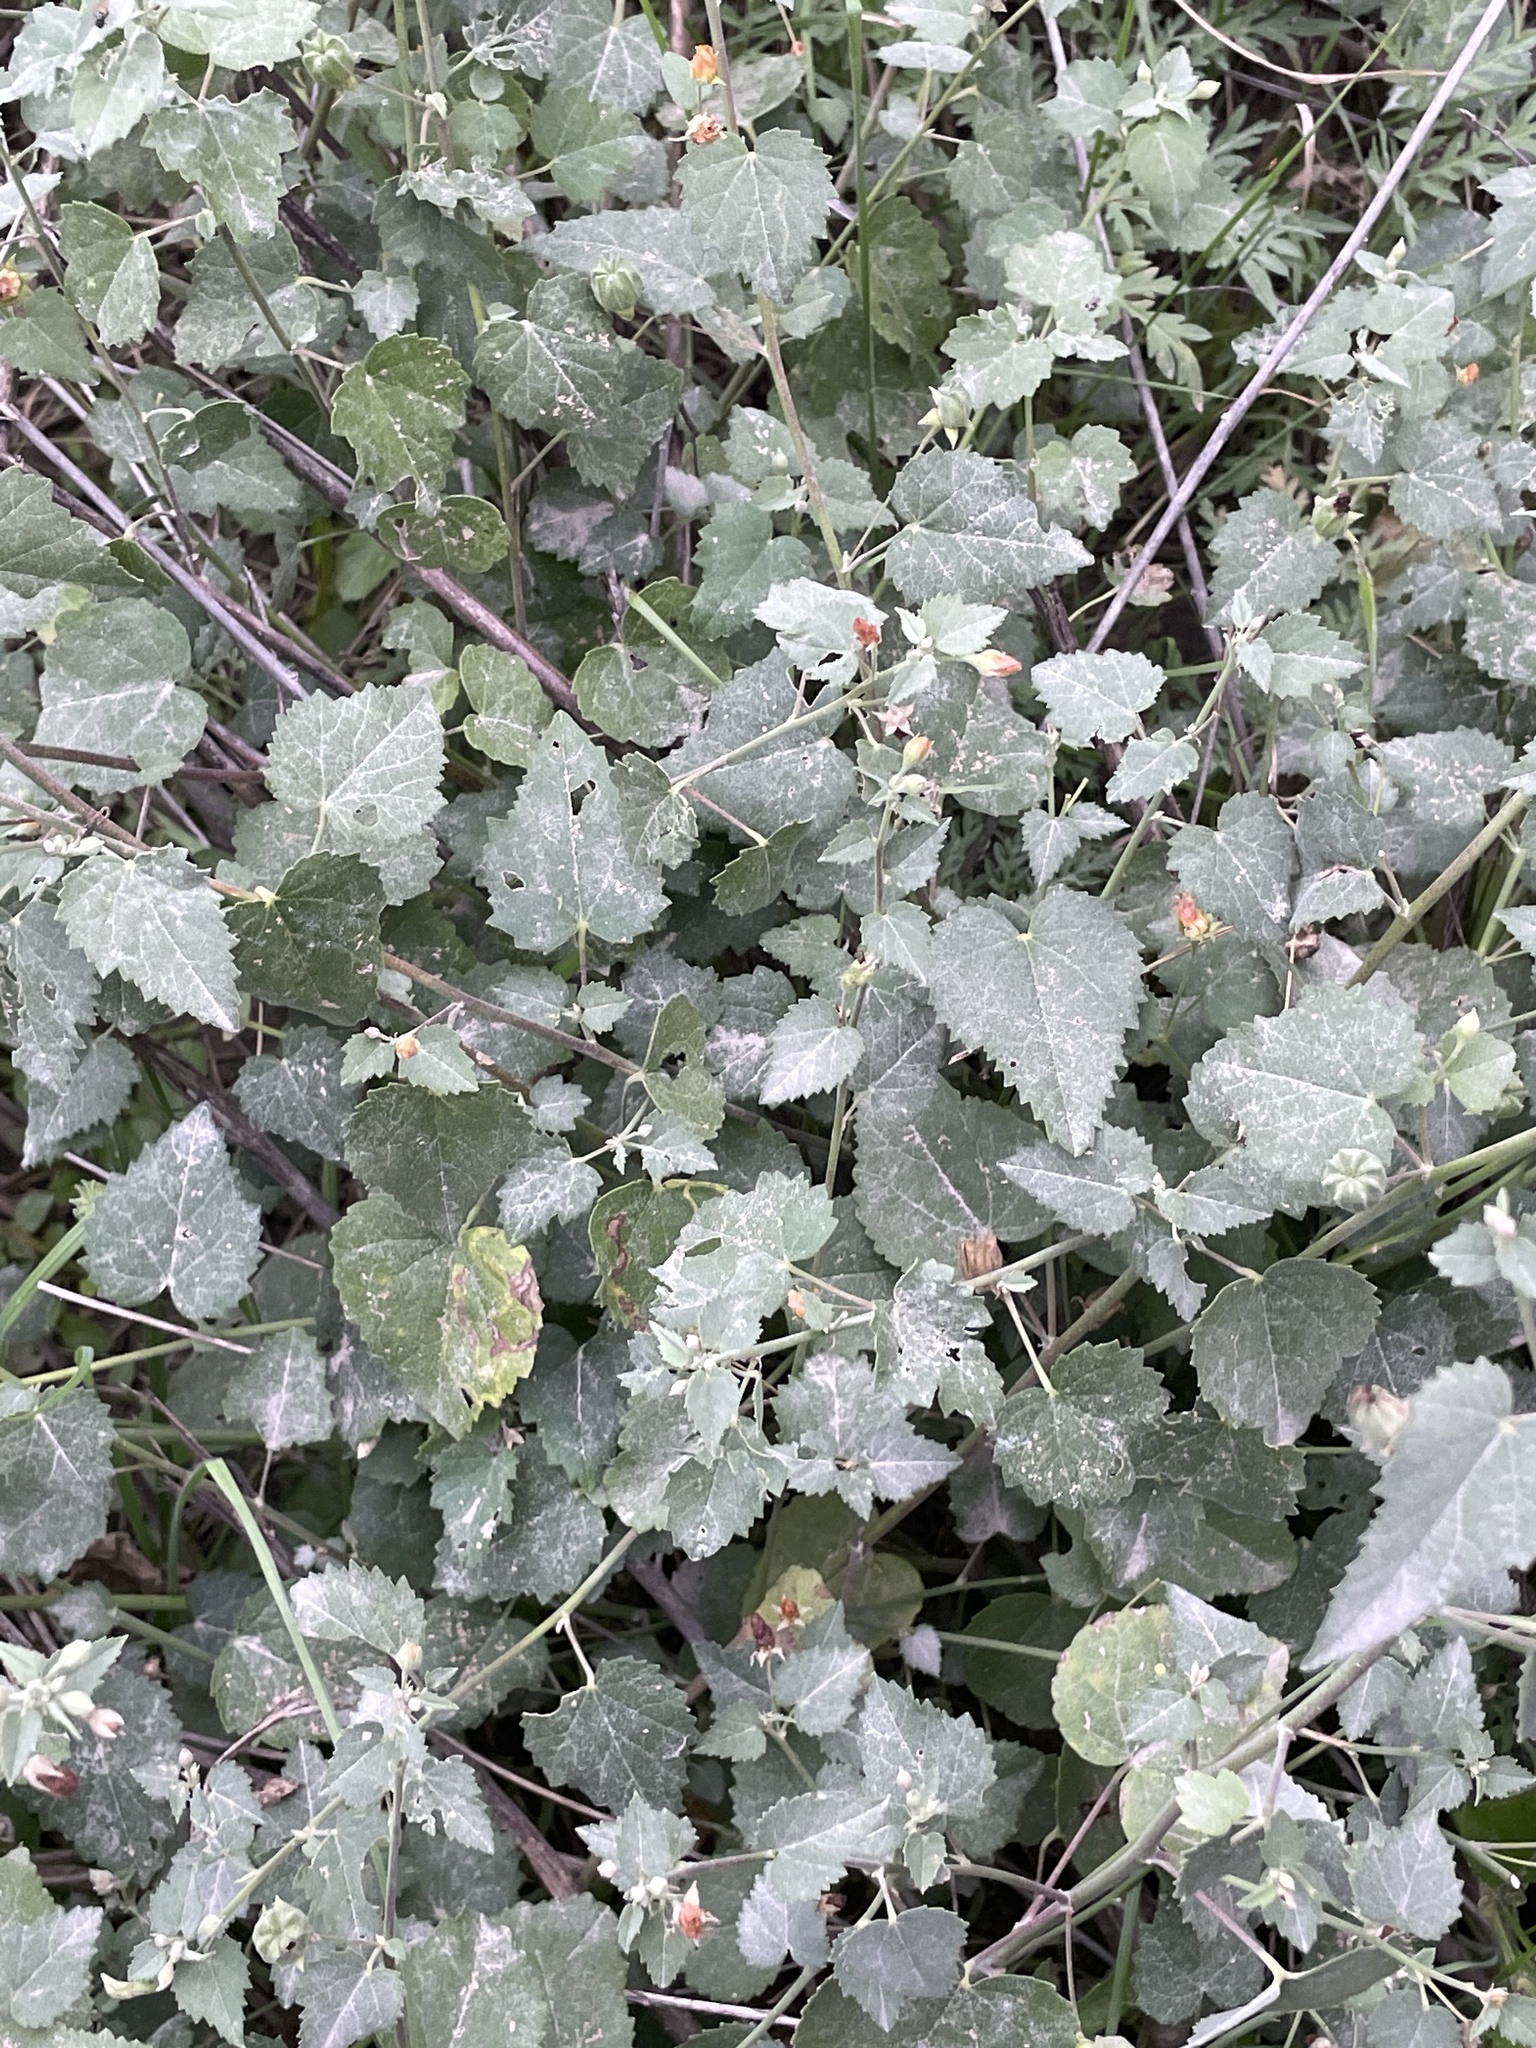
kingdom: Plantae
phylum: Tracheophyta
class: Magnoliopsida
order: Malvales
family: Malvaceae
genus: Abutilon
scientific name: Abutilon fruticosum
